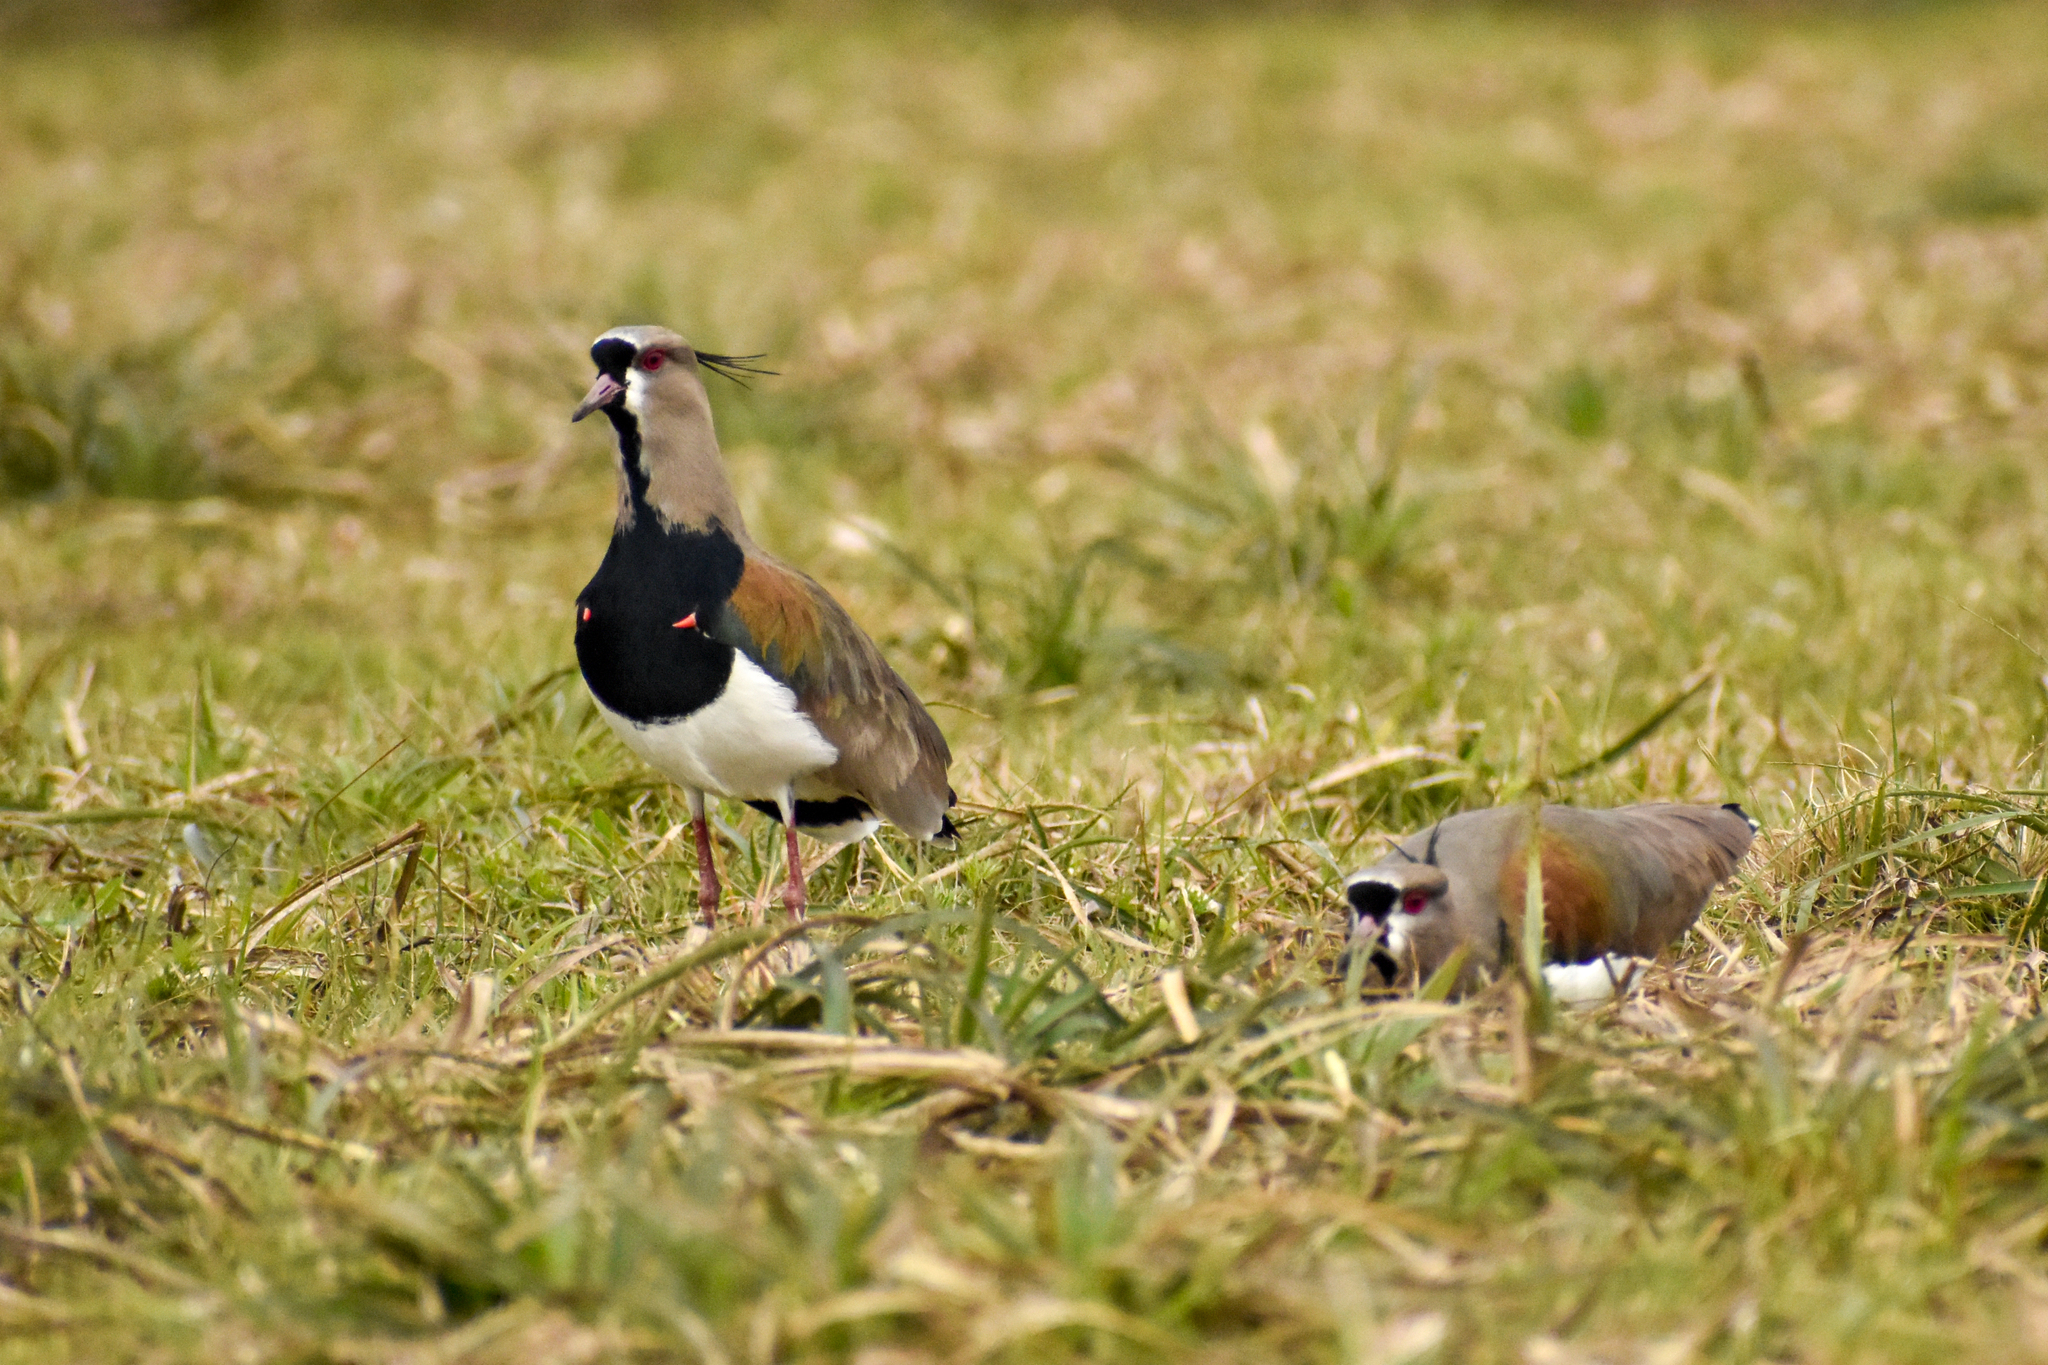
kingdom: Animalia
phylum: Chordata
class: Aves
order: Charadriiformes
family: Charadriidae
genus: Vanellus
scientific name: Vanellus chilensis
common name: Southern lapwing
